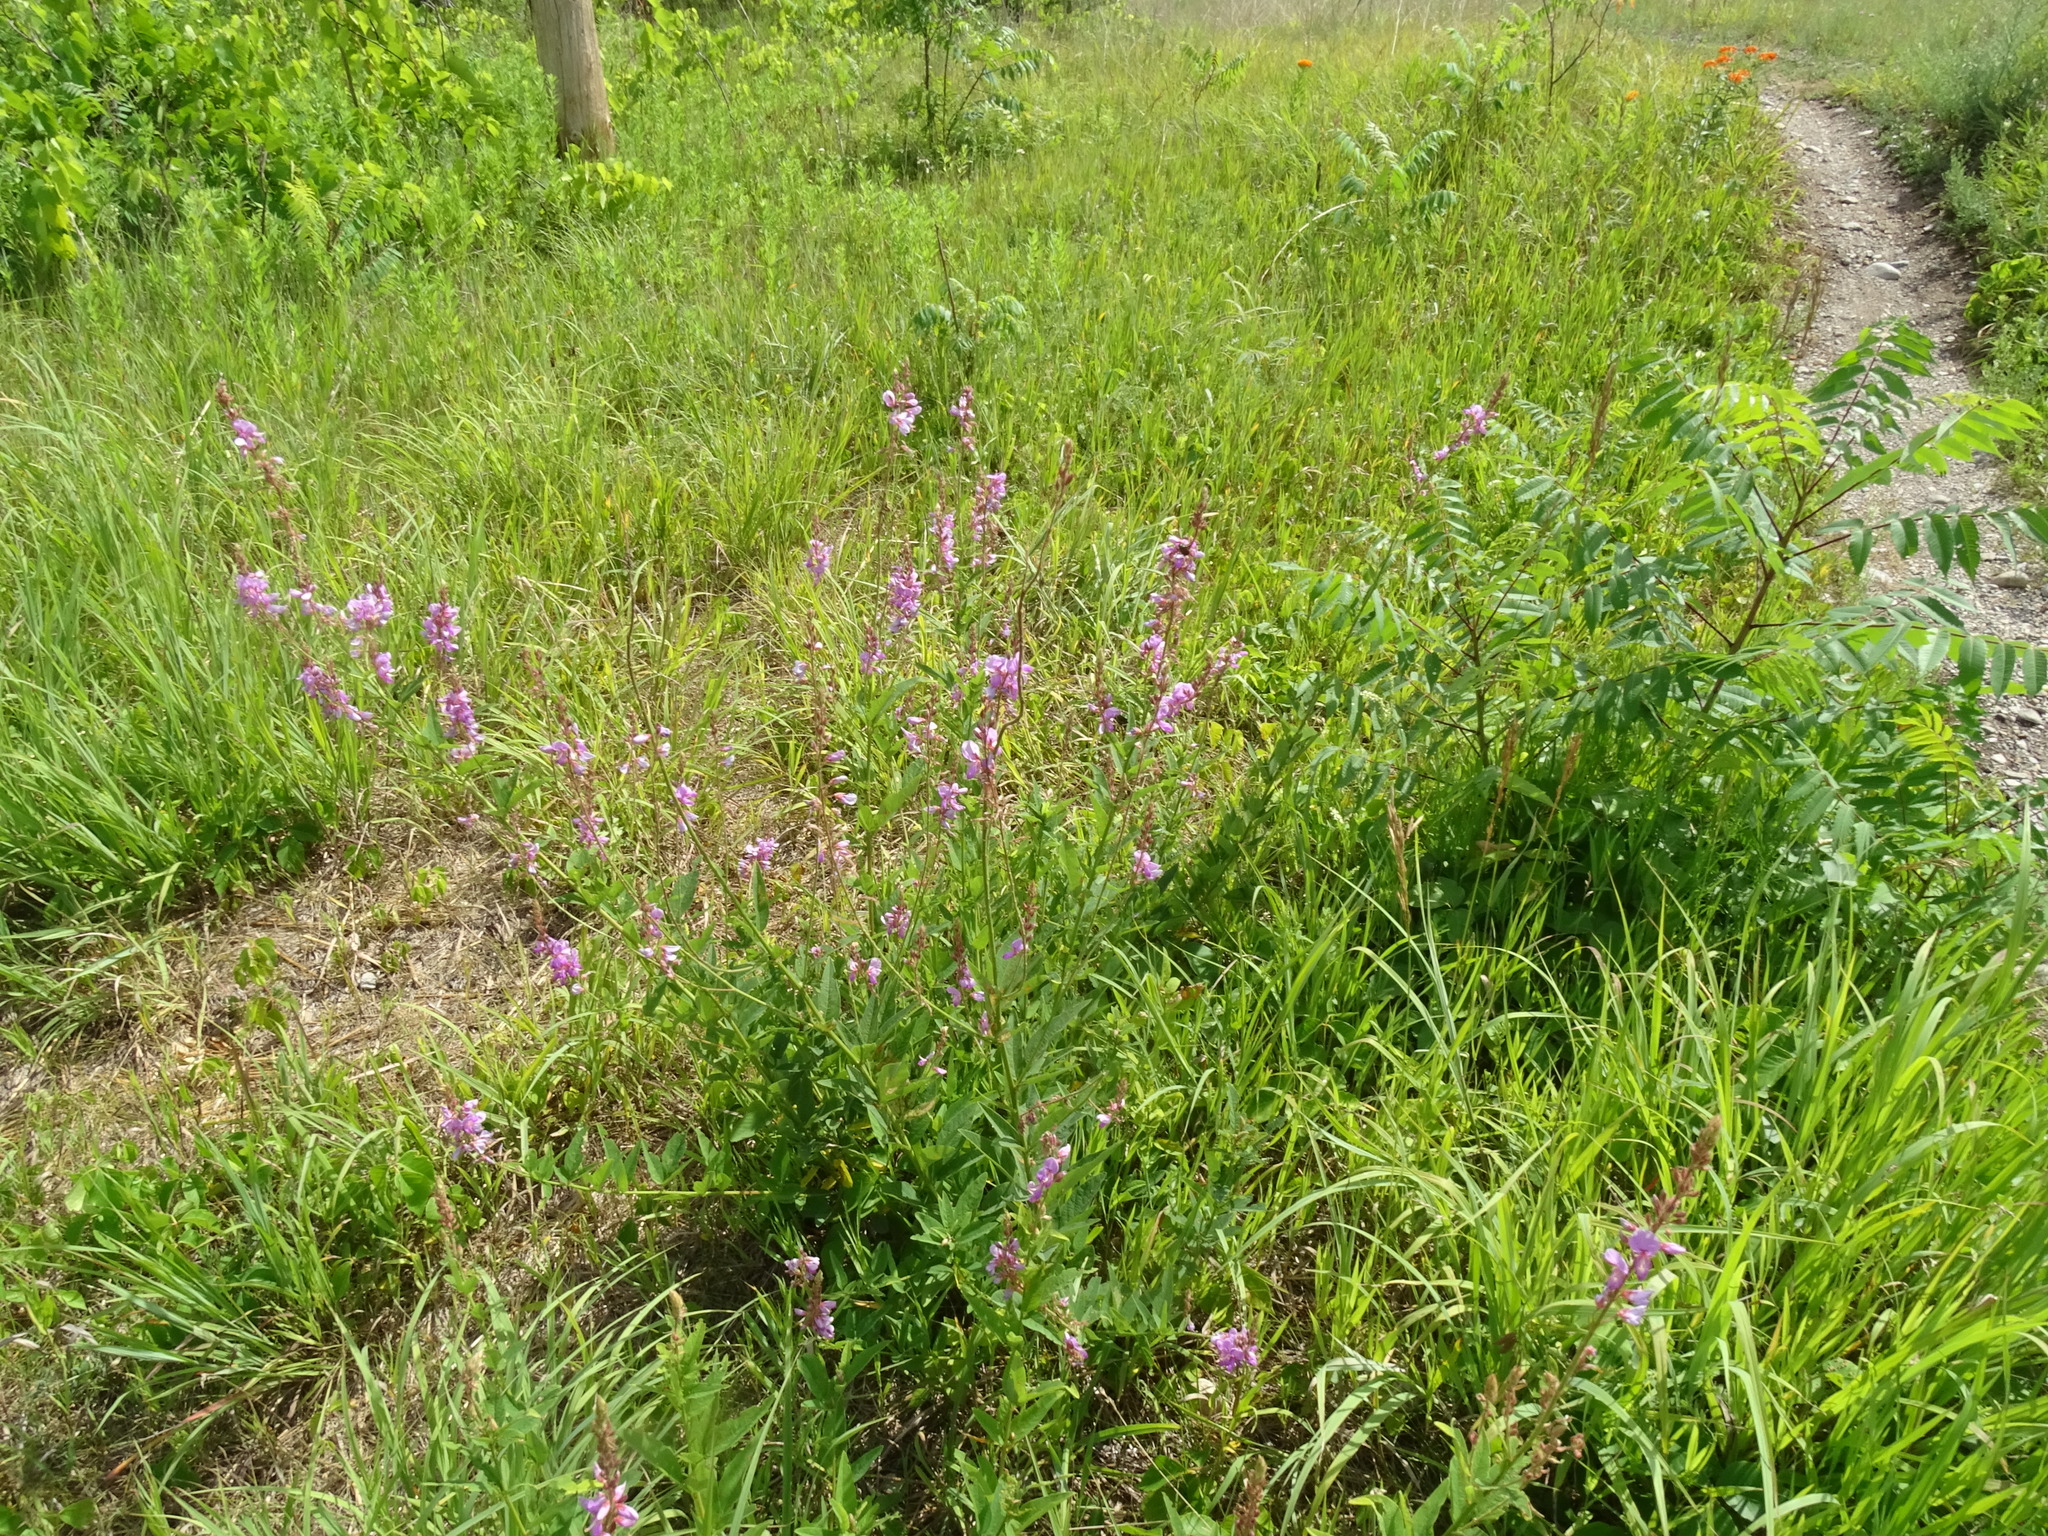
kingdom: Plantae
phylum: Tracheophyta
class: Magnoliopsida
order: Fabales
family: Fabaceae
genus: Desmodium
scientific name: Desmodium canadense
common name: Canada tick-trefoil
